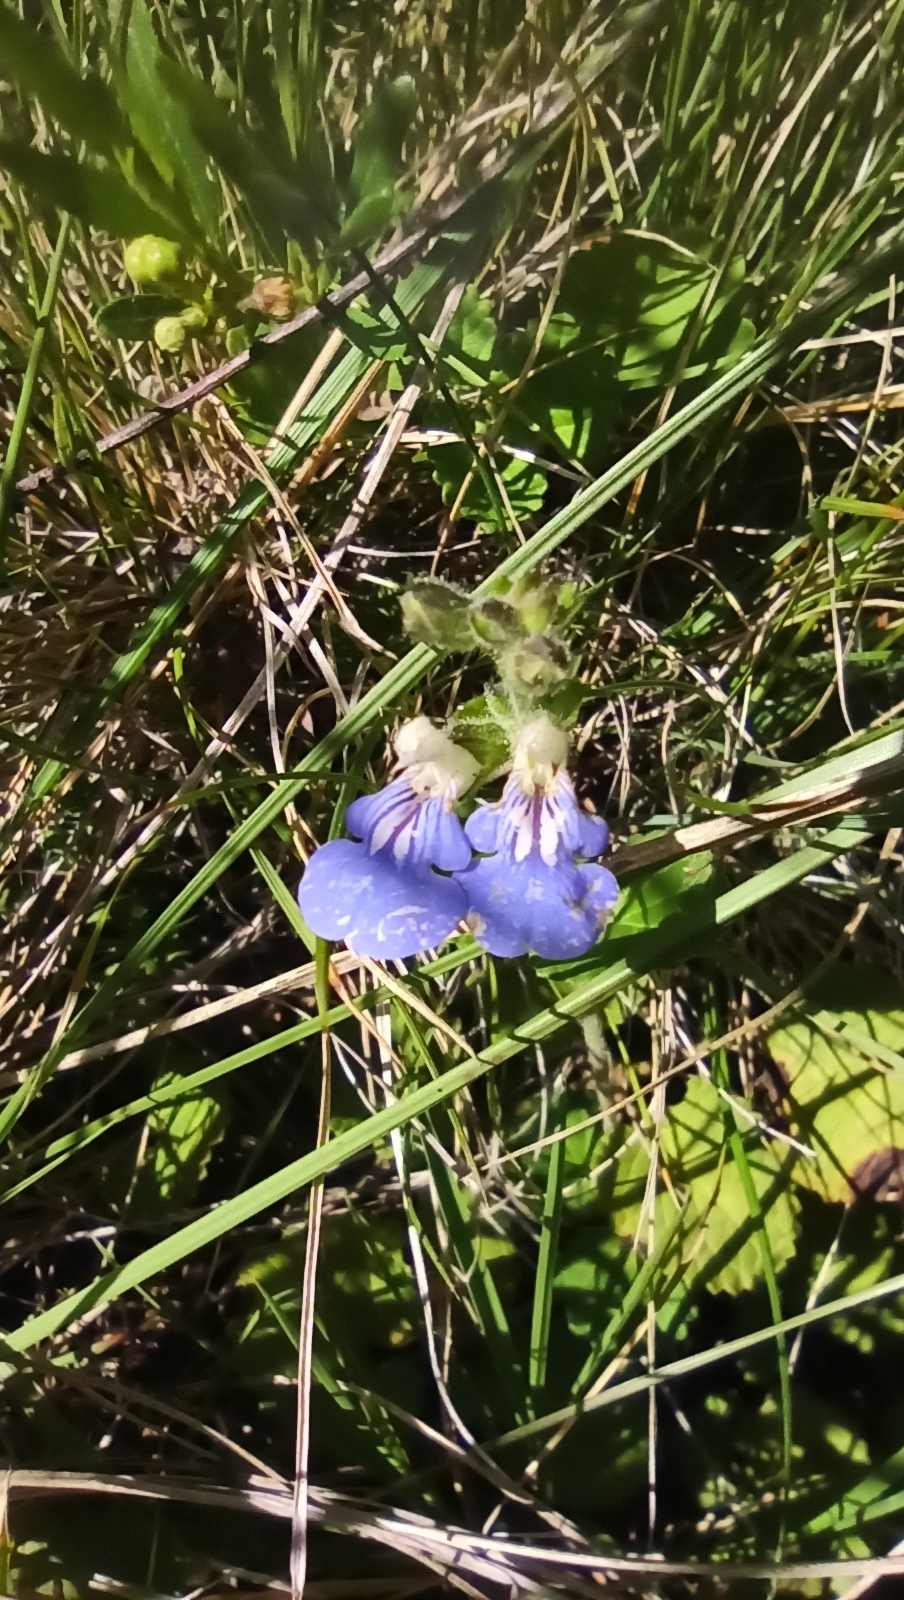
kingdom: Plantae
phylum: Tracheophyta
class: Magnoliopsida
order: Lamiales
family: Lamiaceae
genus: Salvia
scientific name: Salvia procurrens
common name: Blue creeper
